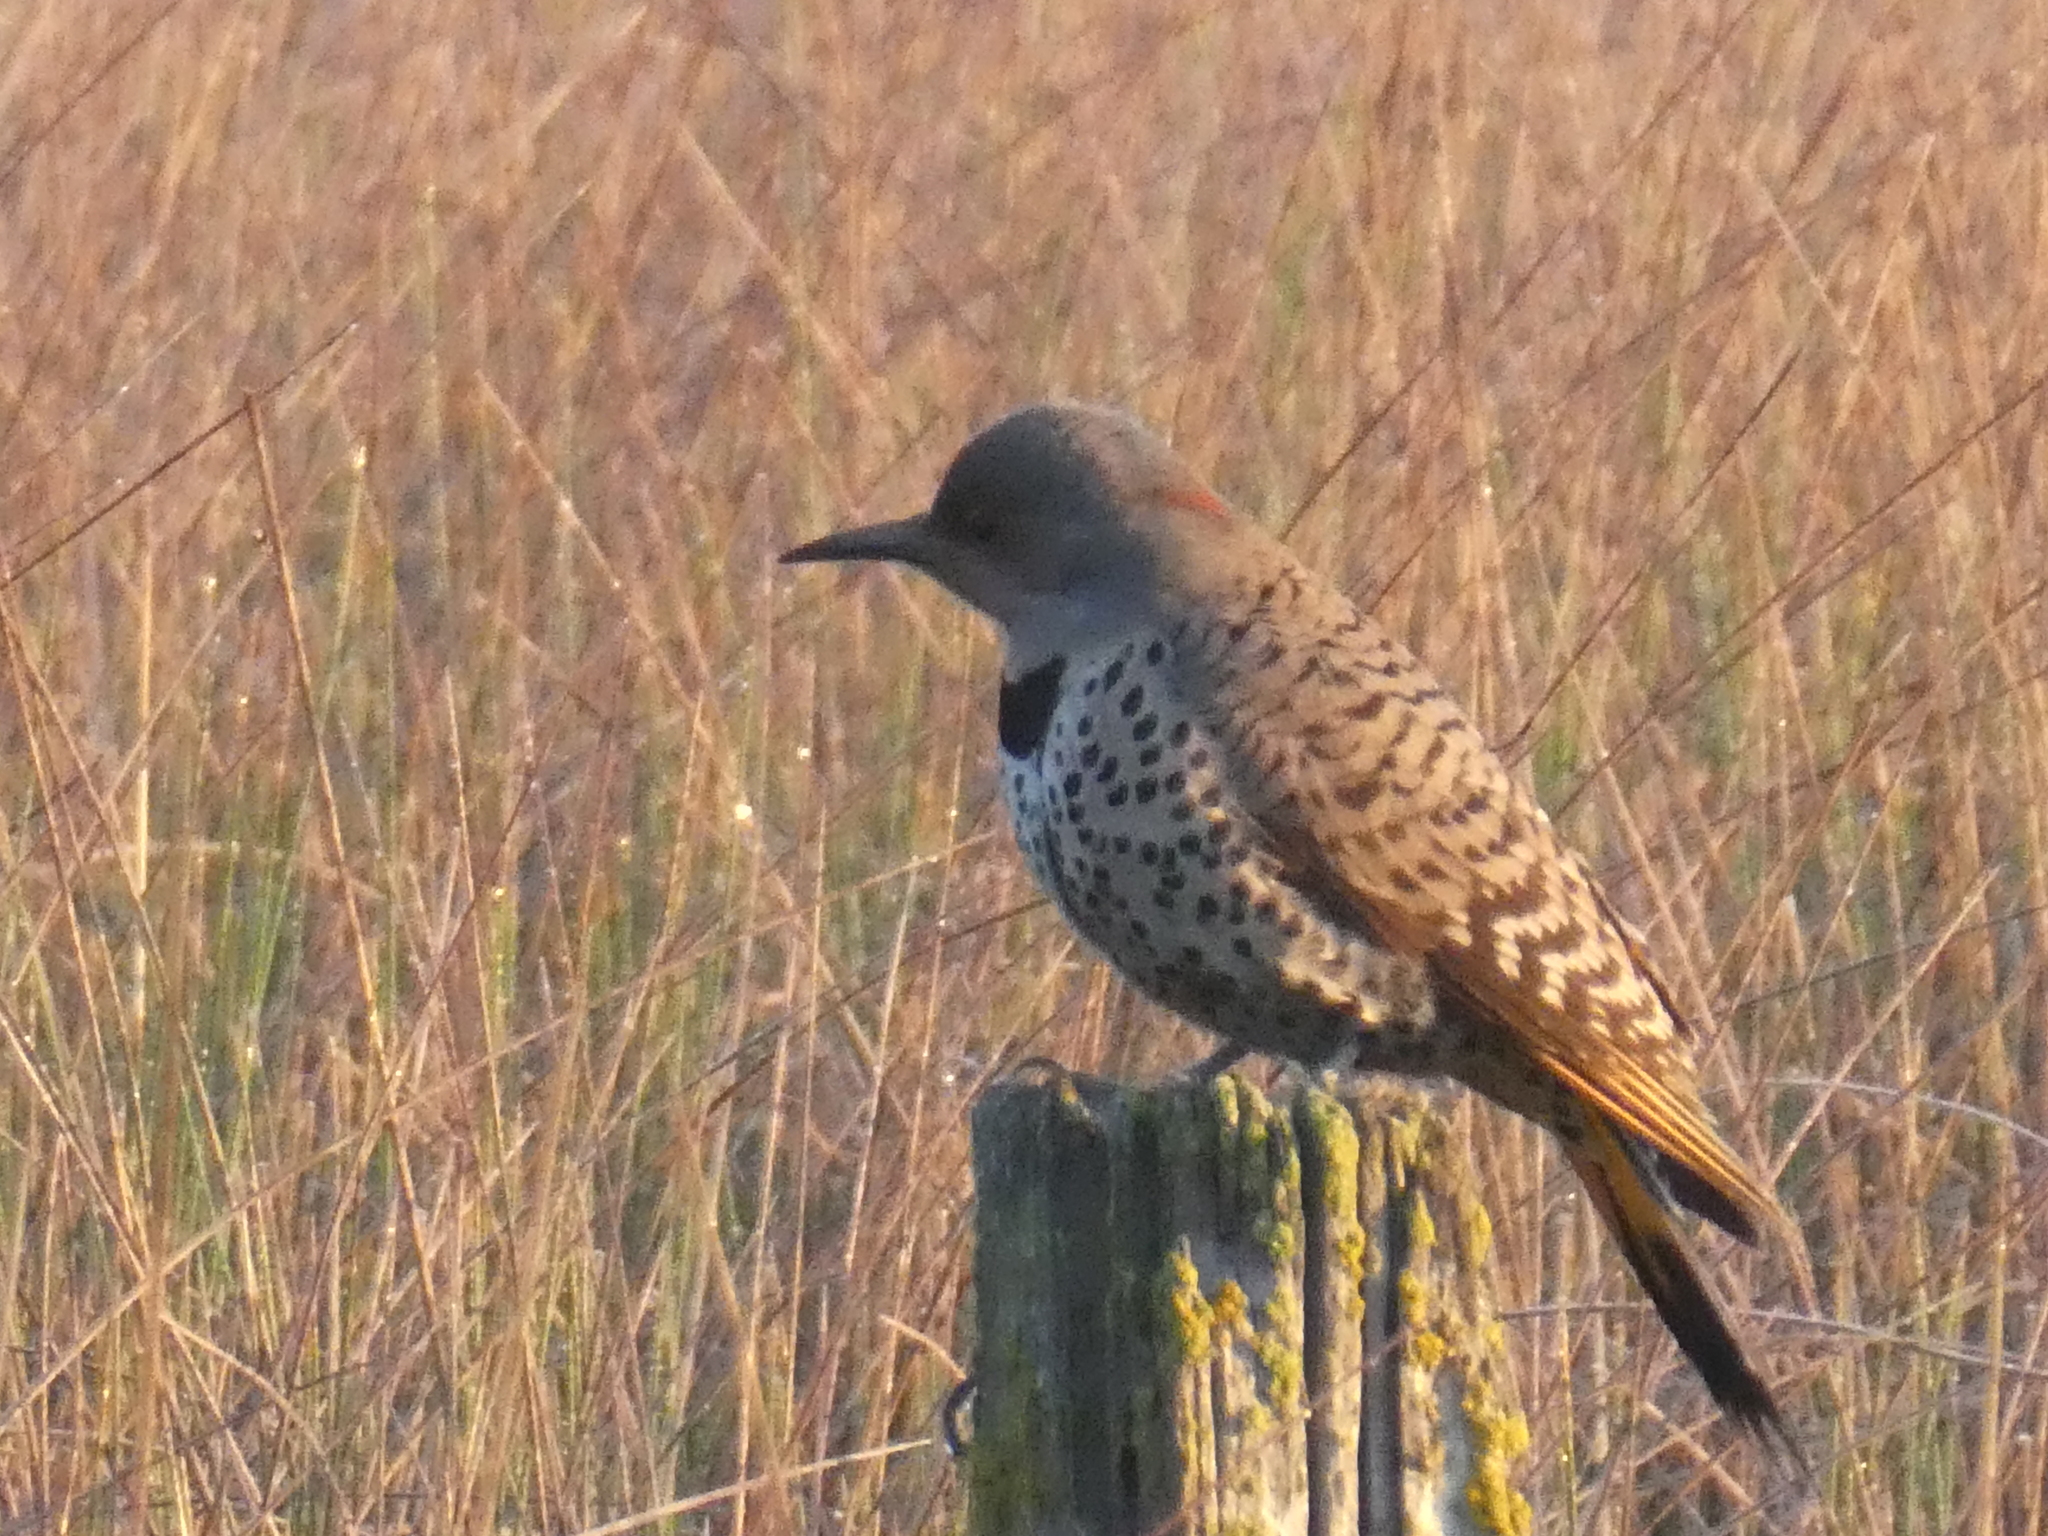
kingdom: Animalia
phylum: Chordata
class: Aves
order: Piciformes
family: Picidae
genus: Colaptes
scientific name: Colaptes auratus
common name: Northern flicker
